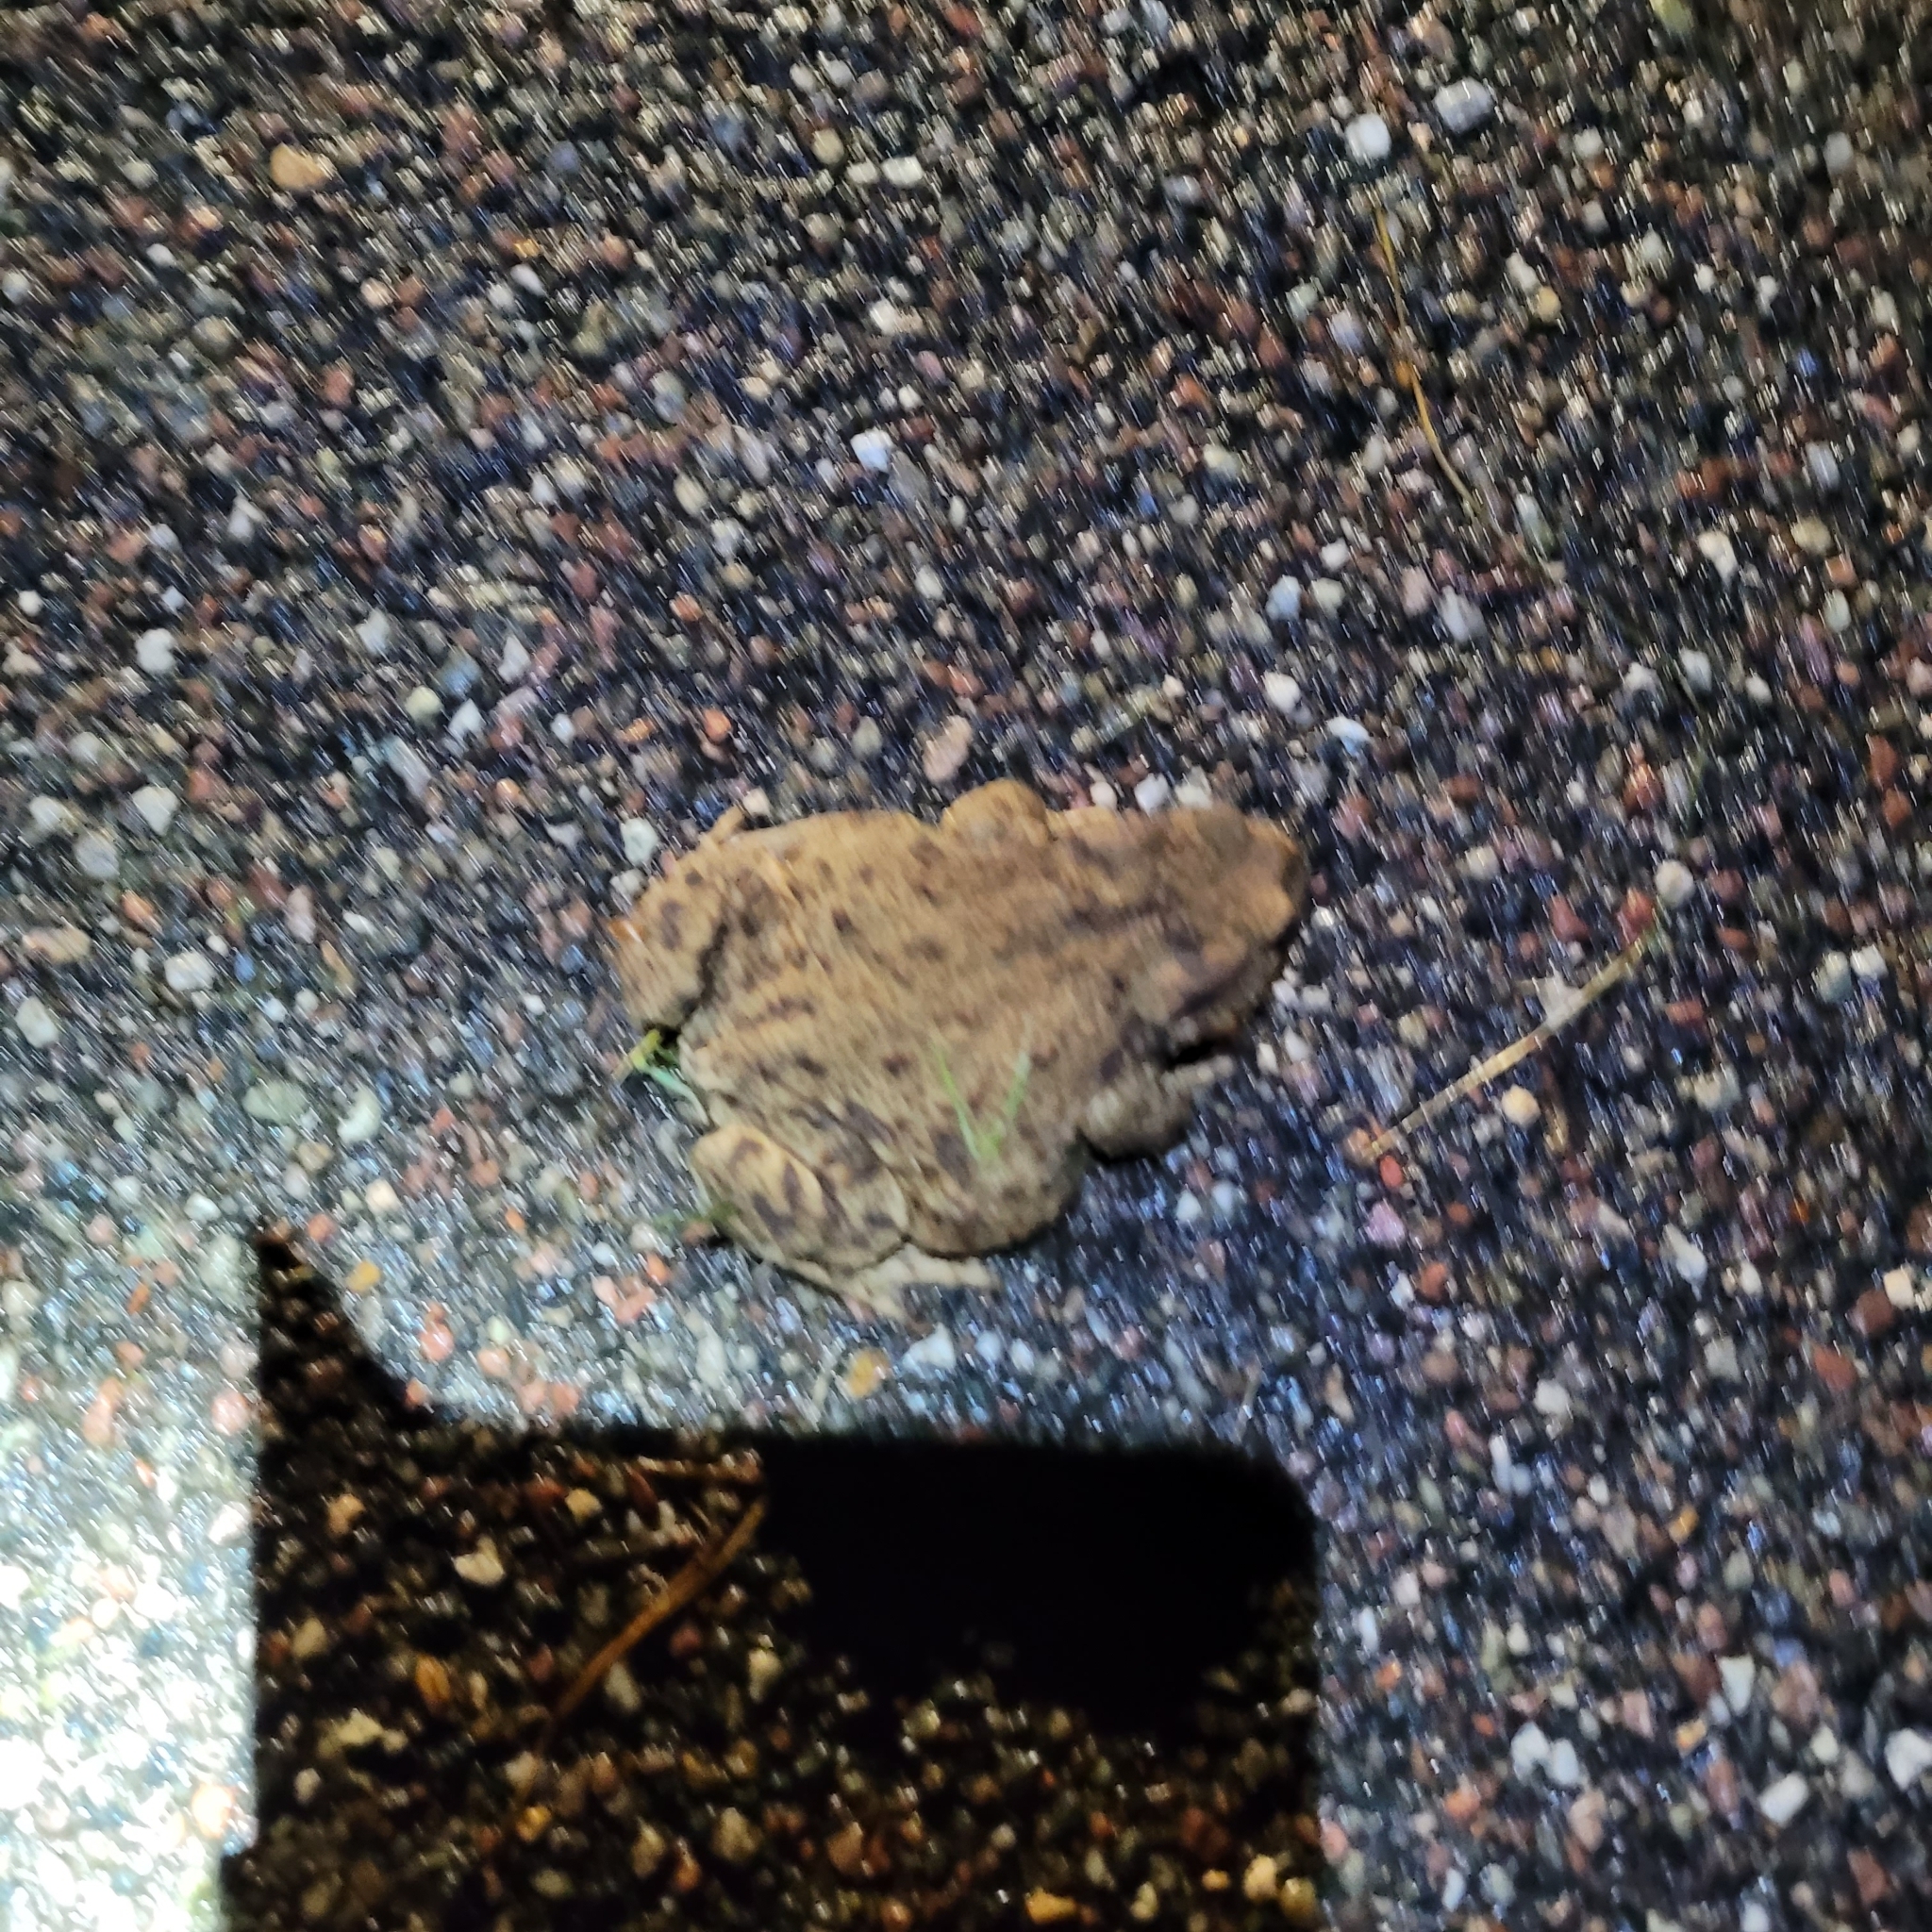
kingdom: Animalia
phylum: Chordata
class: Amphibia
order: Anura
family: Bufonidae
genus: Bufo
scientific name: Bufo bufo
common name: Common toad
